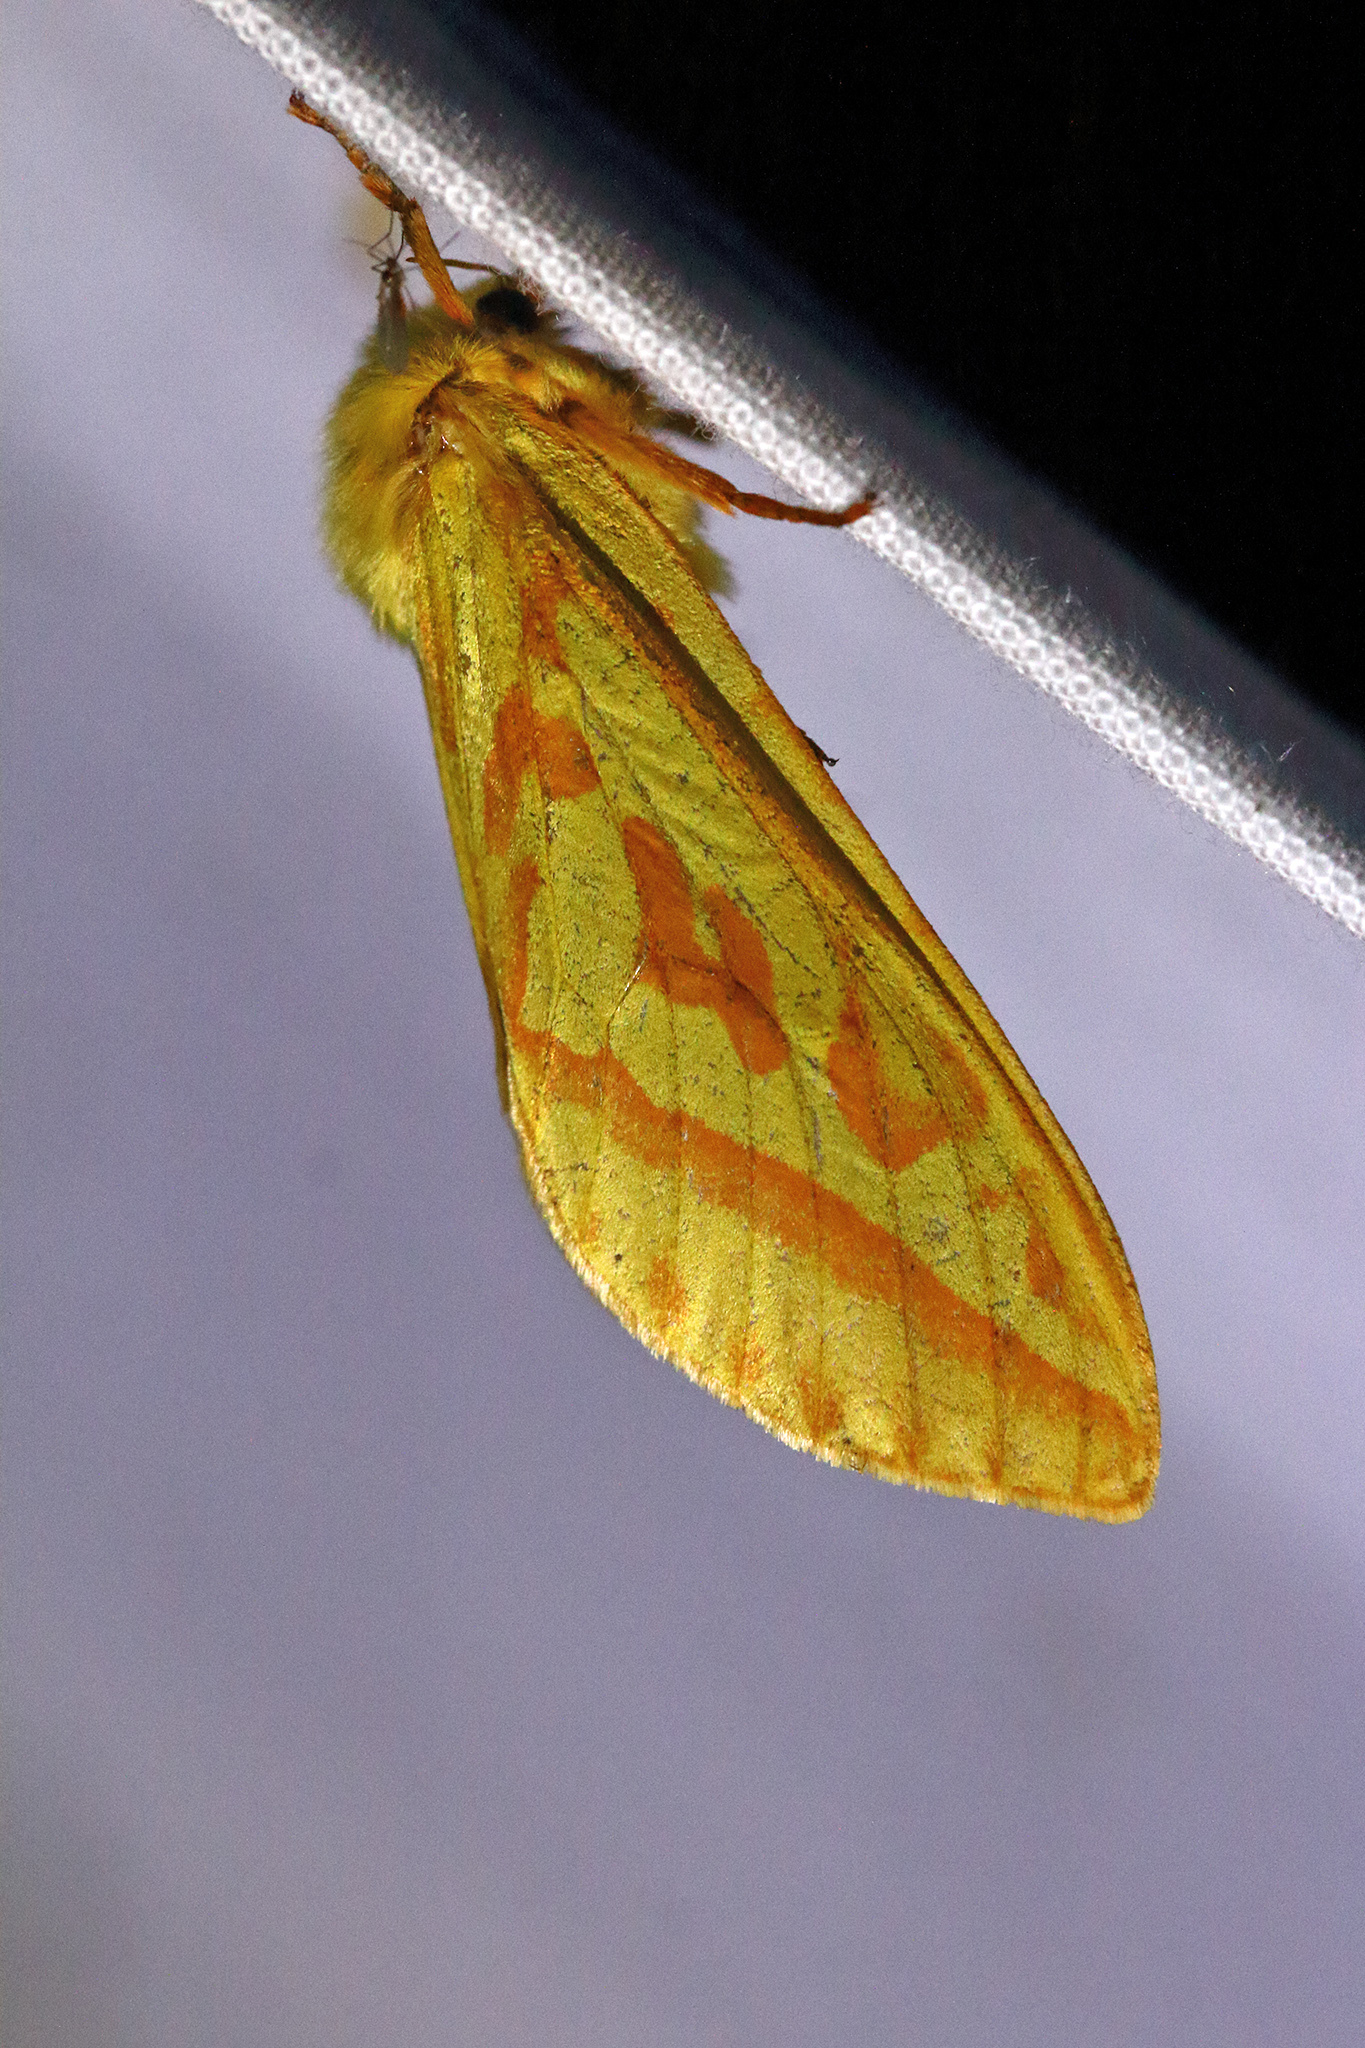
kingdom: Animalia
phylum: Arthropoda
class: Insecta
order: Lepidoptera
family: Hepialidae
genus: Hepialus
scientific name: Hepialus humuli
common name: Ghost moth
